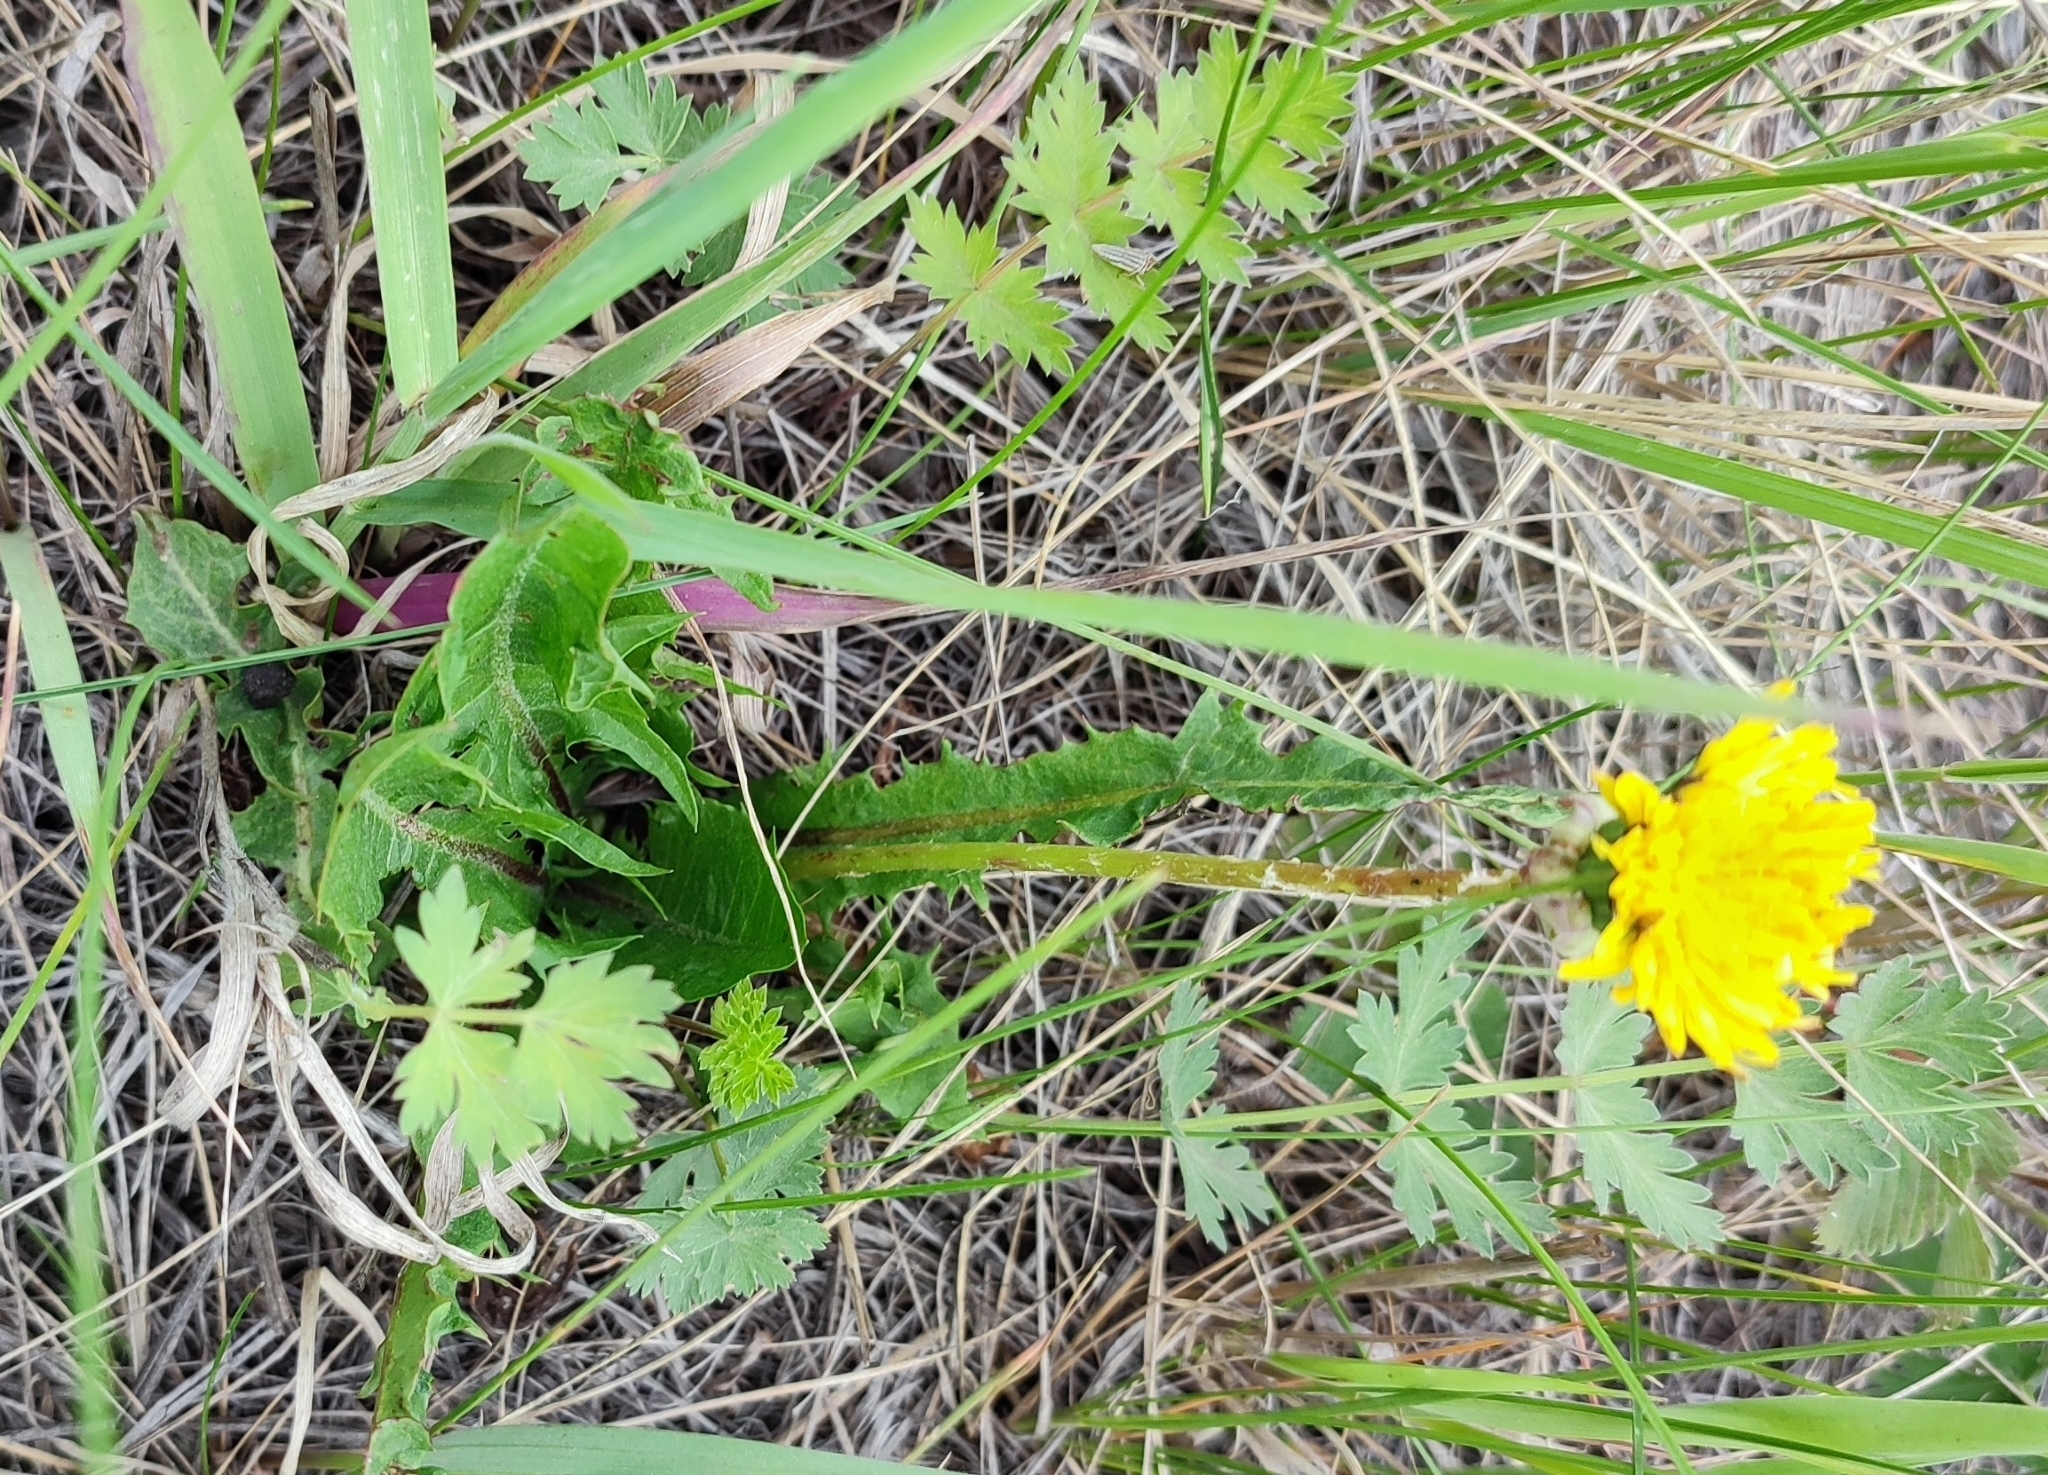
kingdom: Plantae
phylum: Tracheophyta
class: Magnoliopsida
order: Asterales
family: Asteraceae
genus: Taraxacum
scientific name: Taraxacum officinale
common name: Common dandelion
